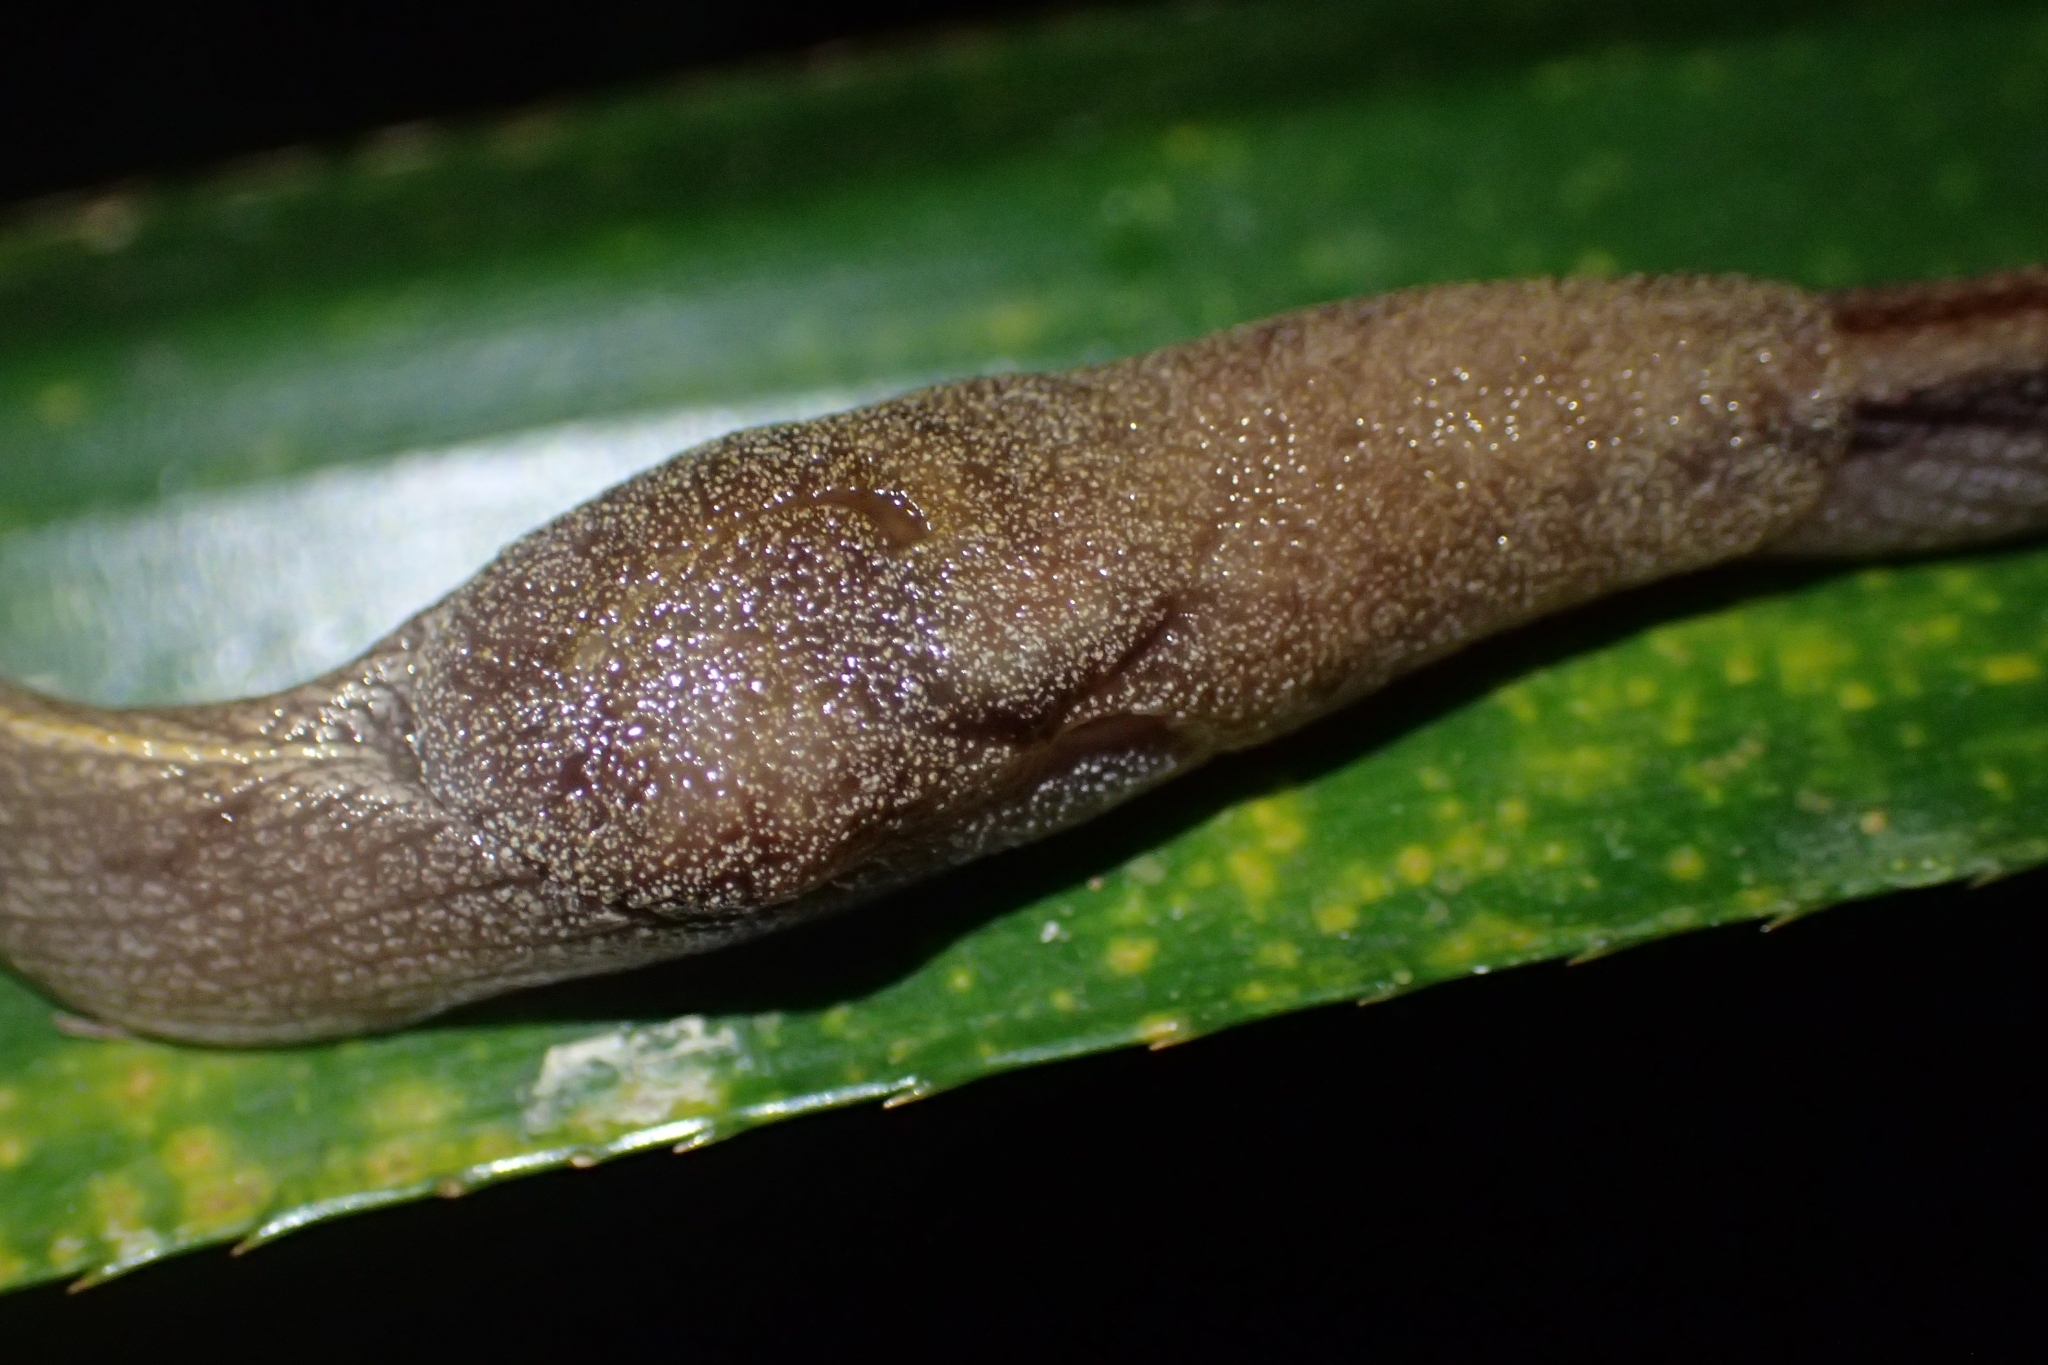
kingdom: Animalia
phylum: Mollusca
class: Gastropoda
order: Stylommatophora
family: Helicarionidae
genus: Parmacochlea
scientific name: Parmacochlea furca
